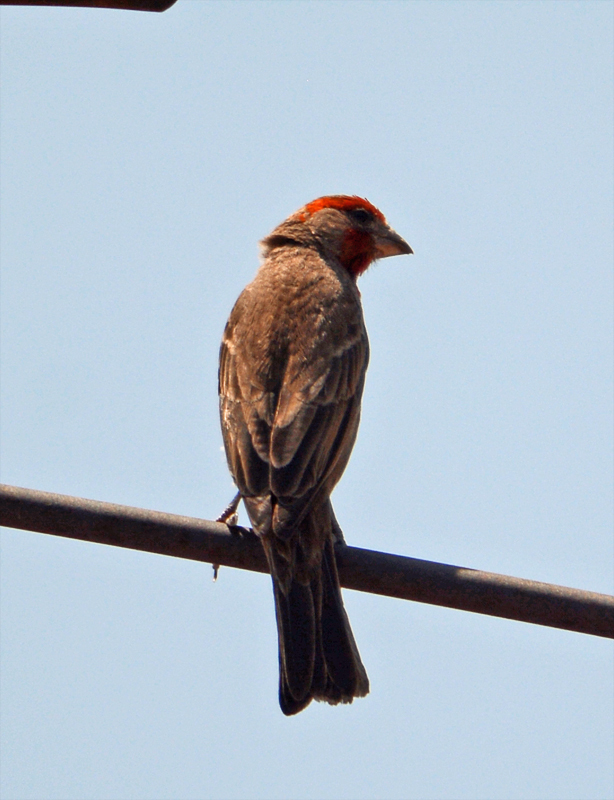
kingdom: Animalia
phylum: Chordata
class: Aves
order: Passeriformes
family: Fringillidae
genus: Haemorhous
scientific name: Haemorhous mexicanus
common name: House finch
